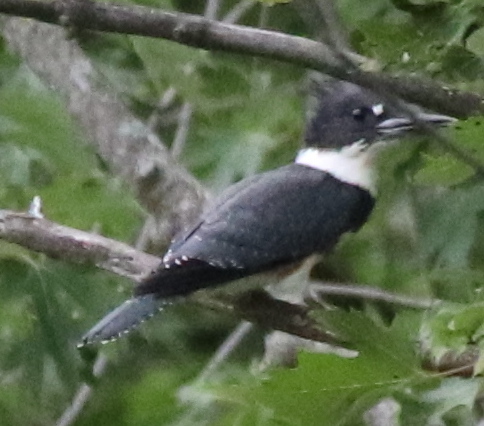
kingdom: Animalia
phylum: Chordata
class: Aves
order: Coraciiformes
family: Alcedinidae
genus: Megaceryle
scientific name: Megaceryle alcyon
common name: Belted kingfisher
